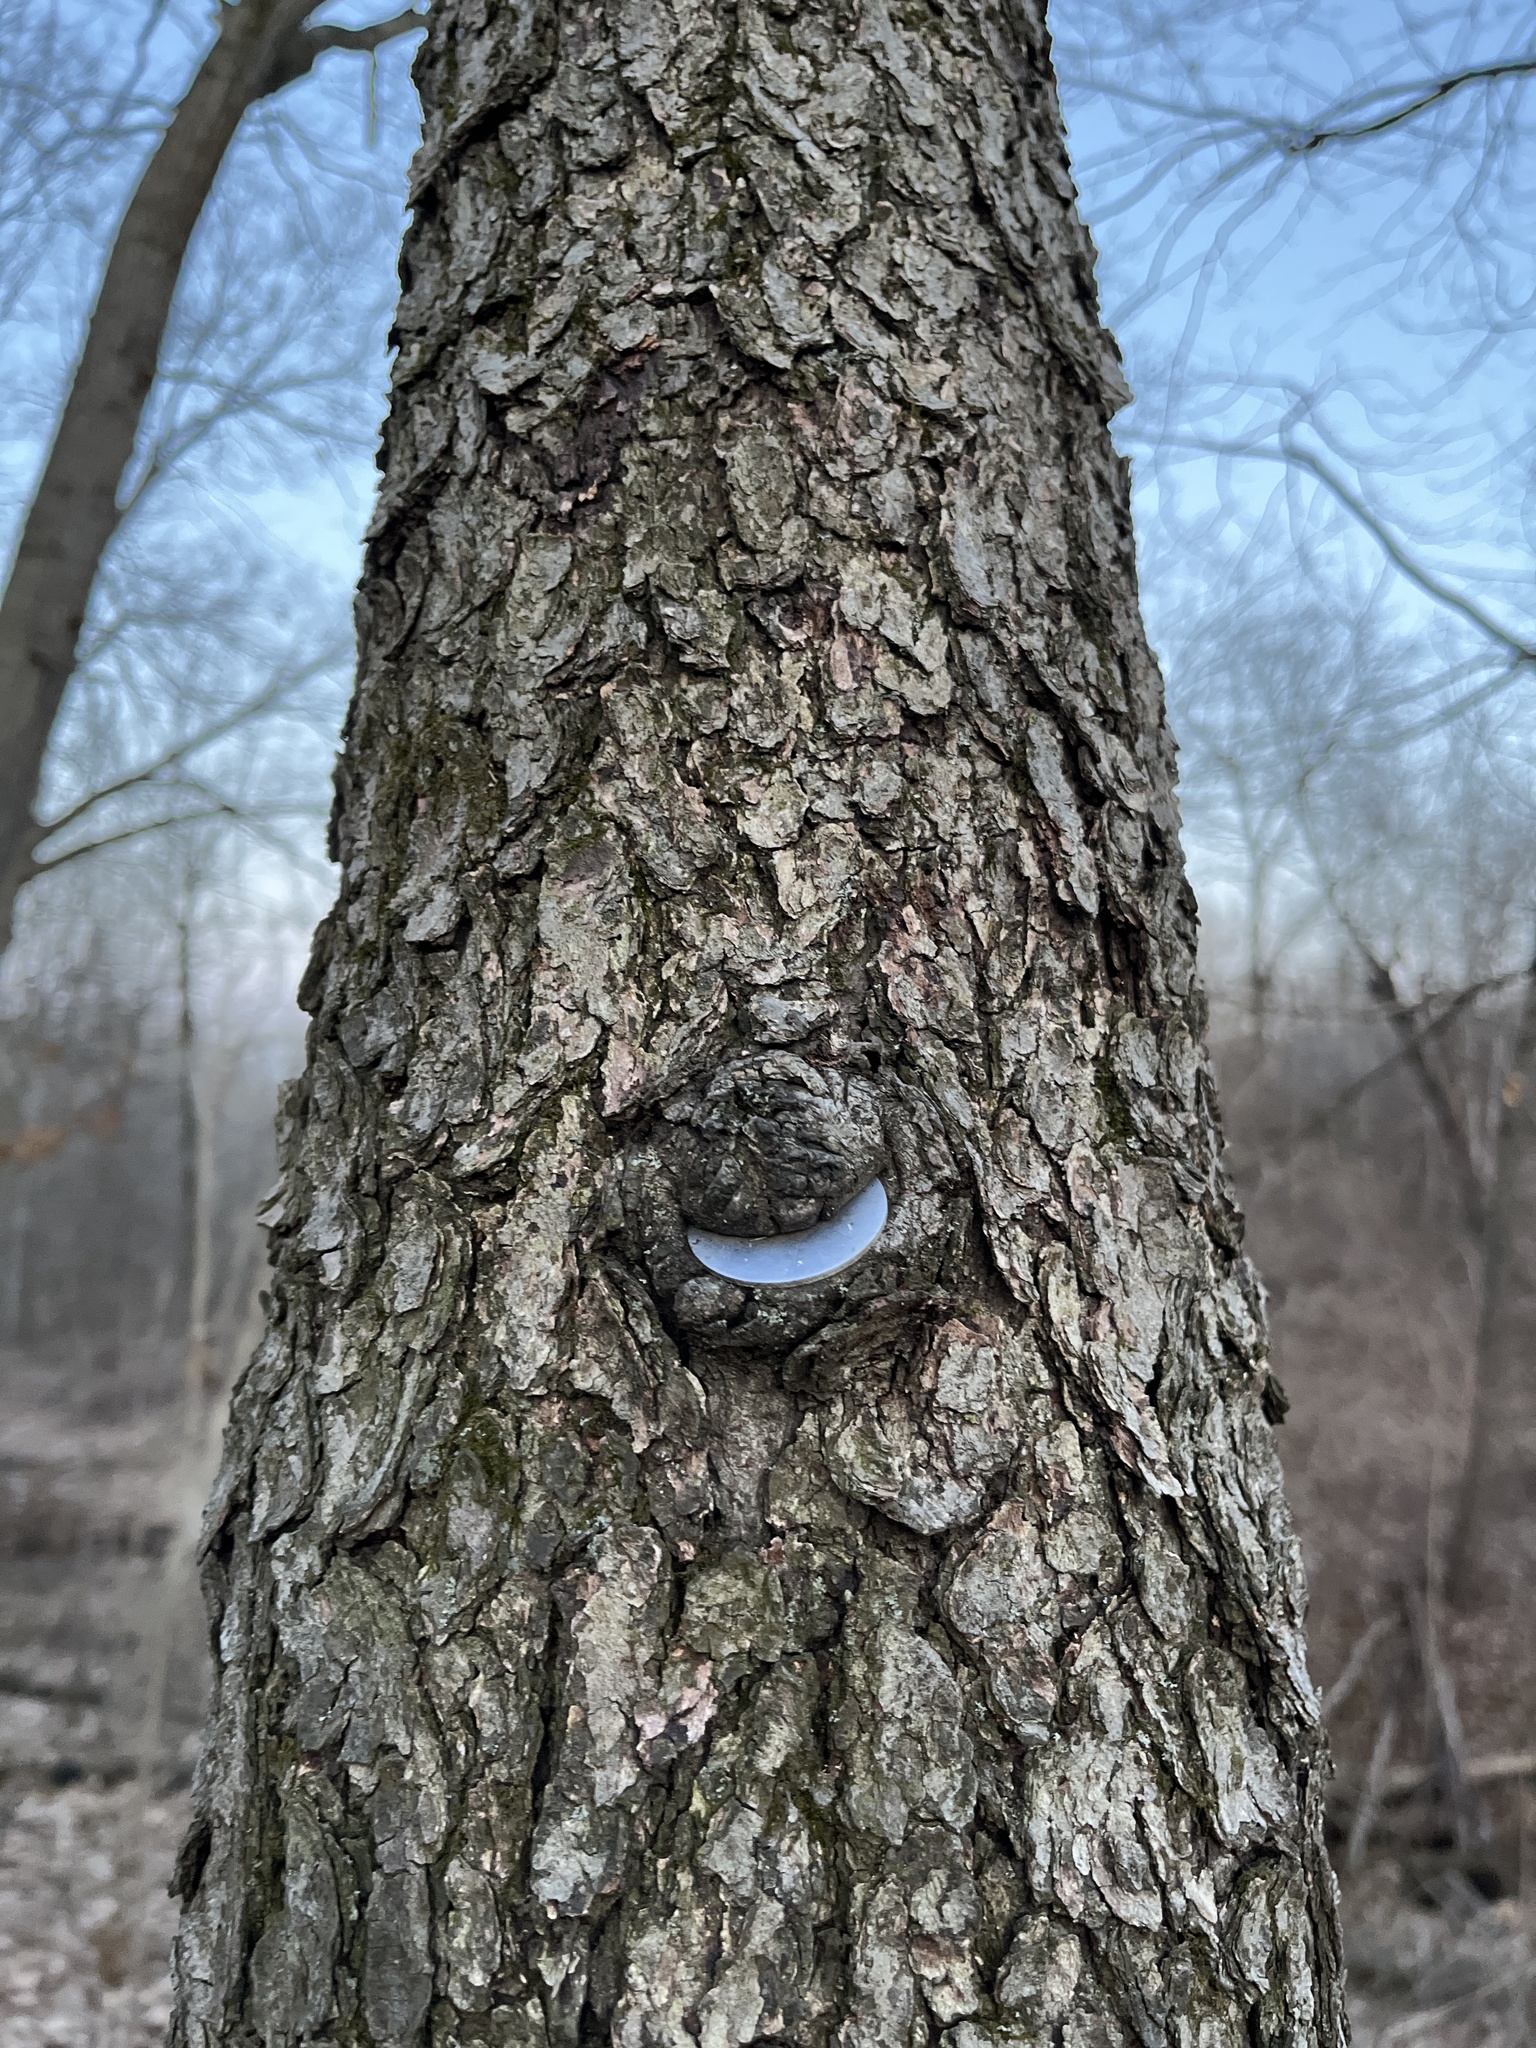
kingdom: Plantae
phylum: Tracheophyta
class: Magnoliopsida
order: Rosales
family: Rosaceae
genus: Prunus
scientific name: Prunus serotina
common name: Black cherry
